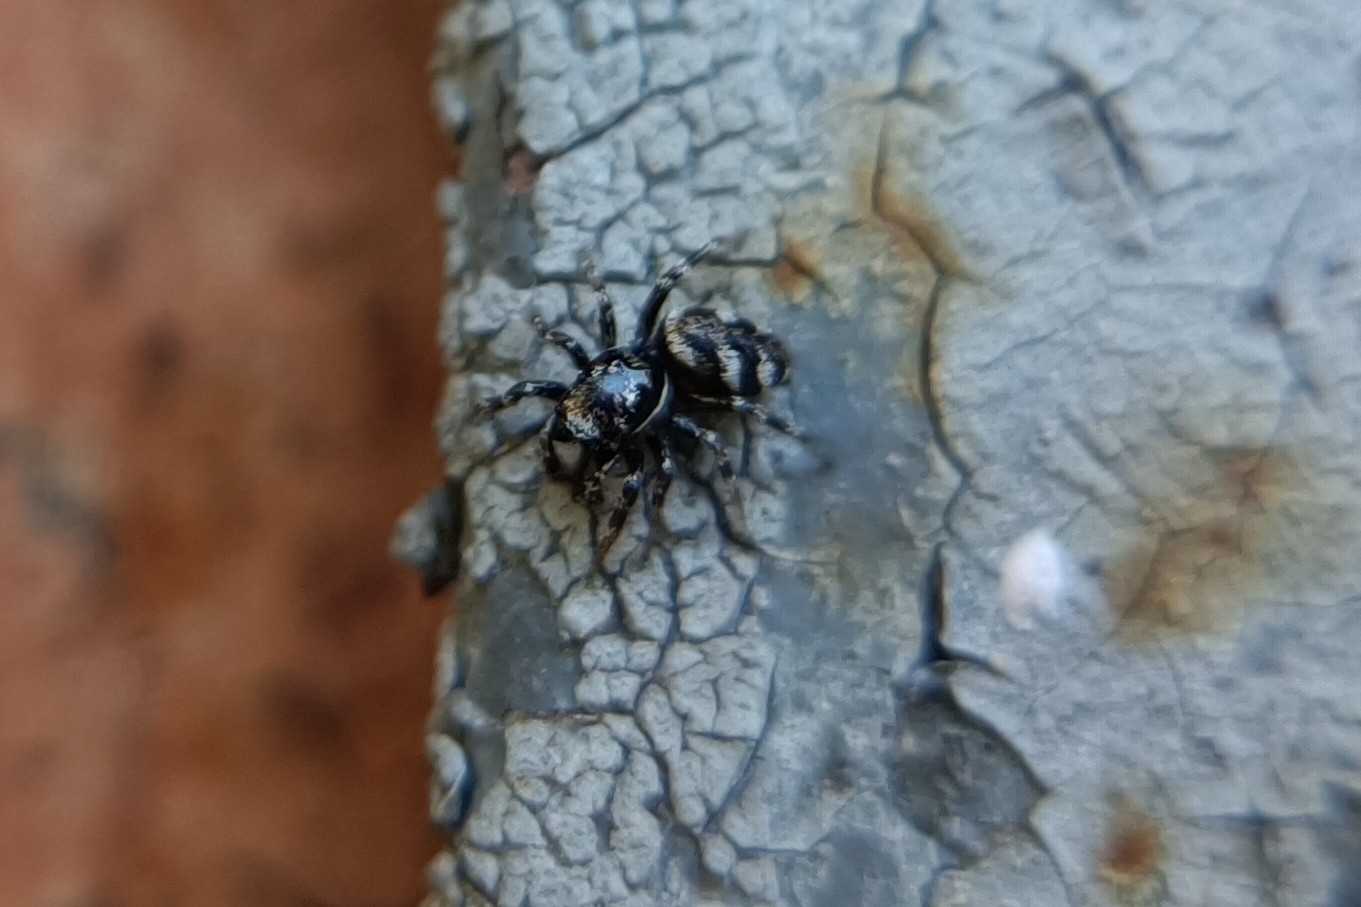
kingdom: Animalia
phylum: Arthropoda
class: Arachnida
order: Araneae
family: Salticidae
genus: Salticus
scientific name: Salticus scenicus
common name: Zebra jumper
